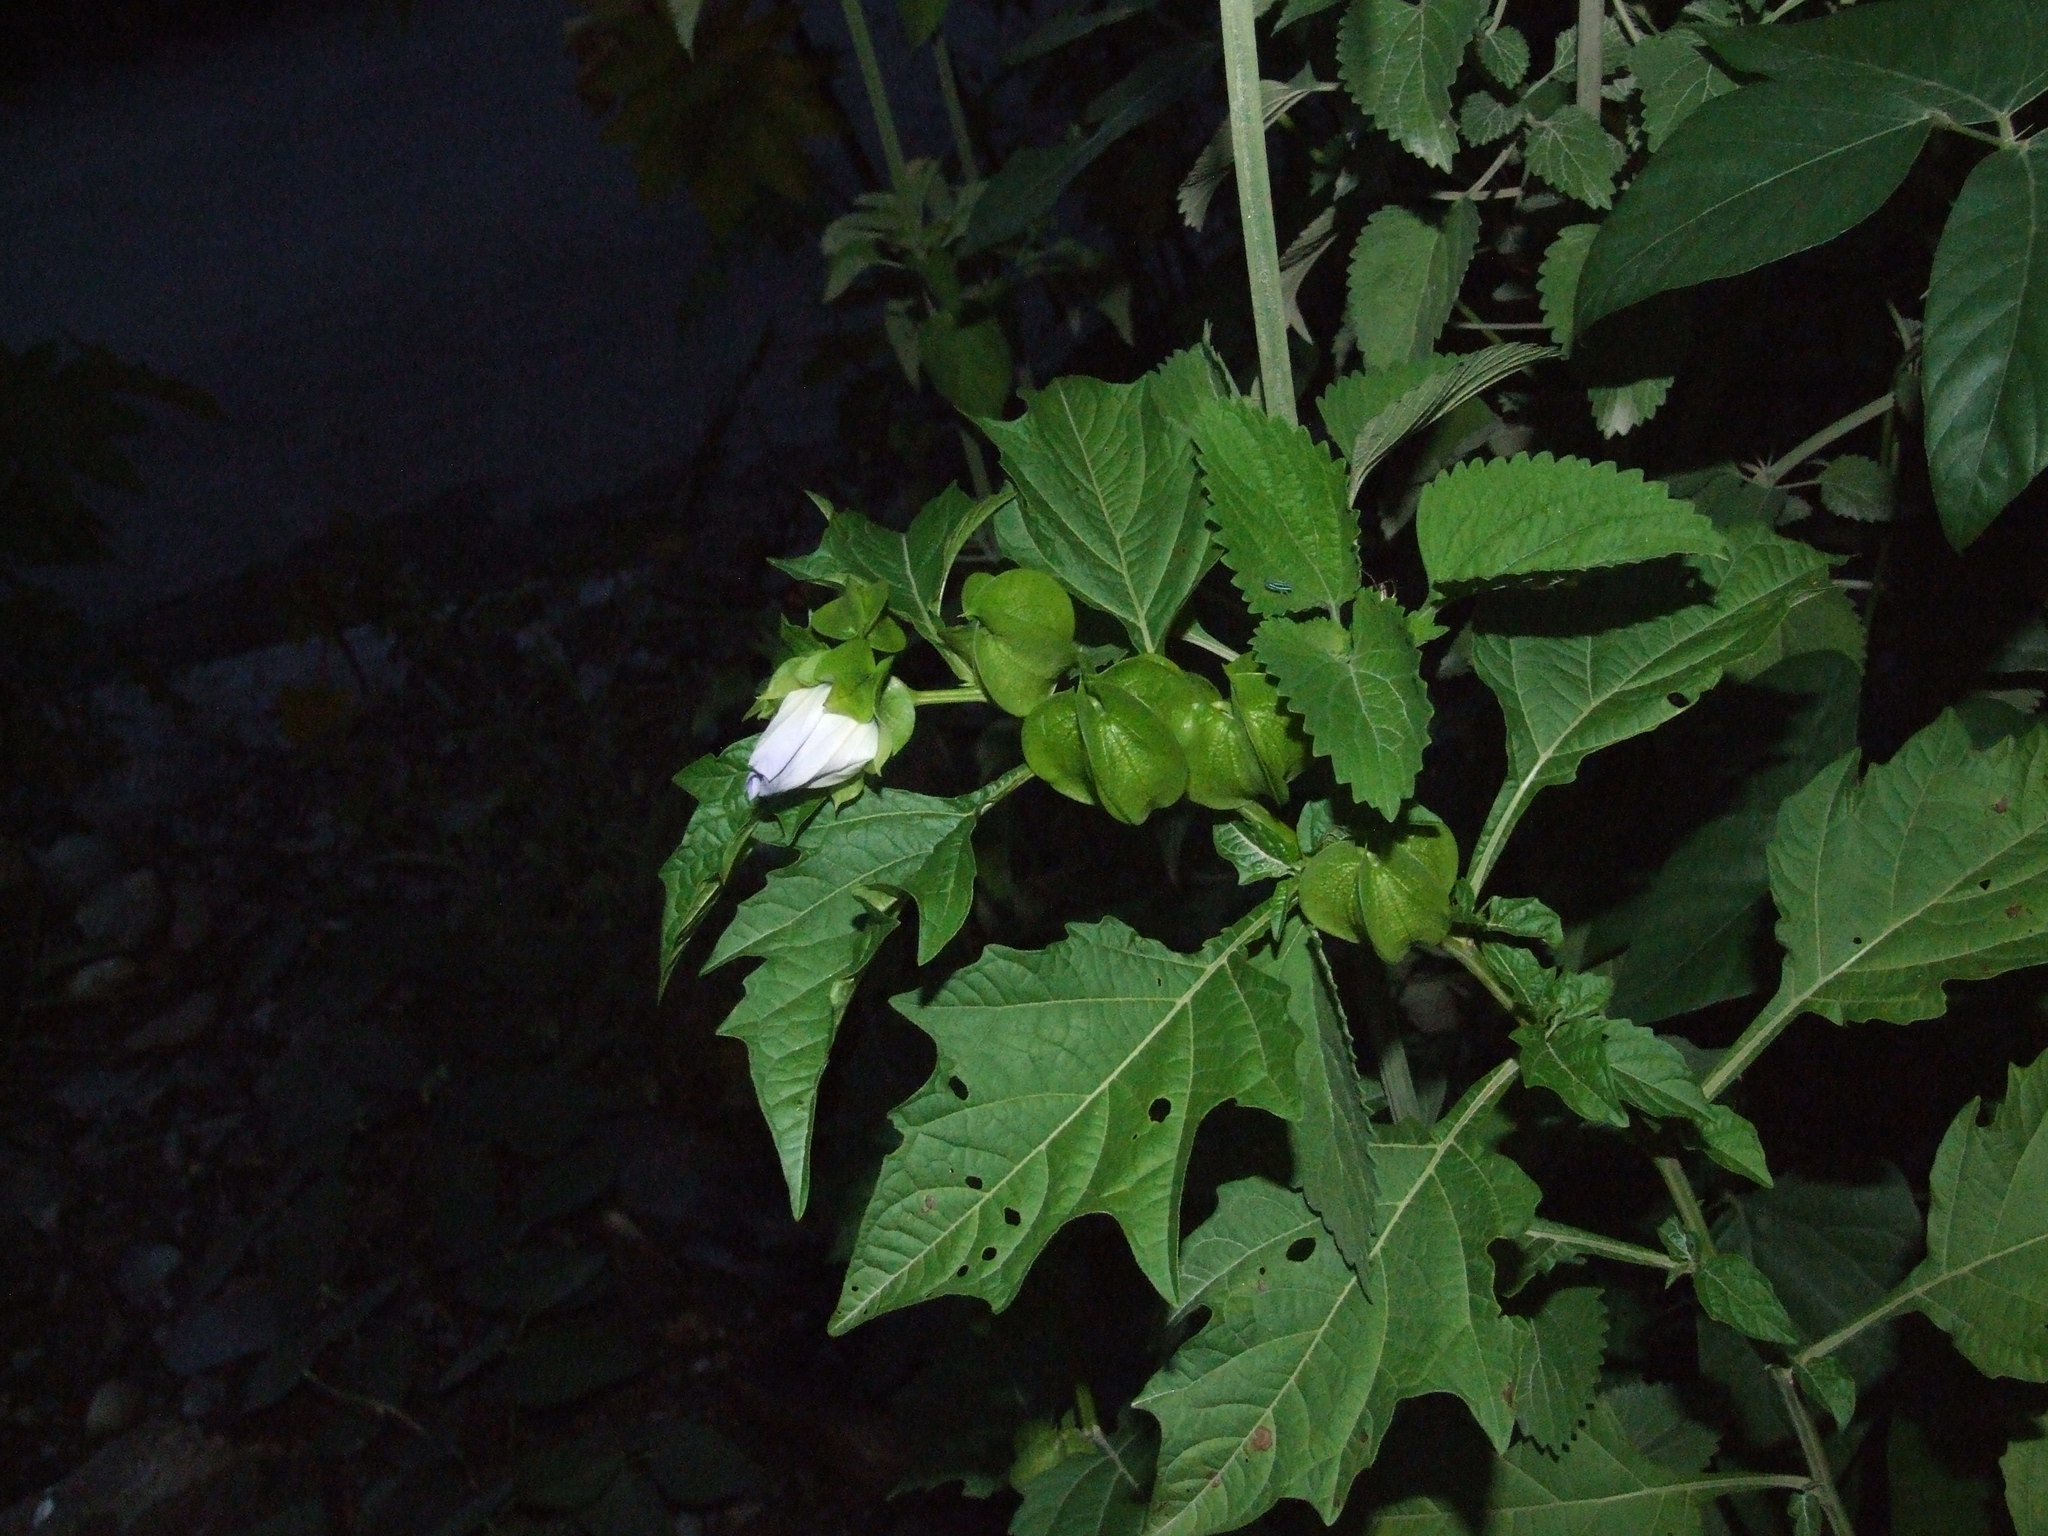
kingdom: Plantae
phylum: Tracheophyta
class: Magnoliopsida
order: Solanales
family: Solanaceae
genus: Nicandra
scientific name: Nicandra physalodes
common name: Apple-of-peru
